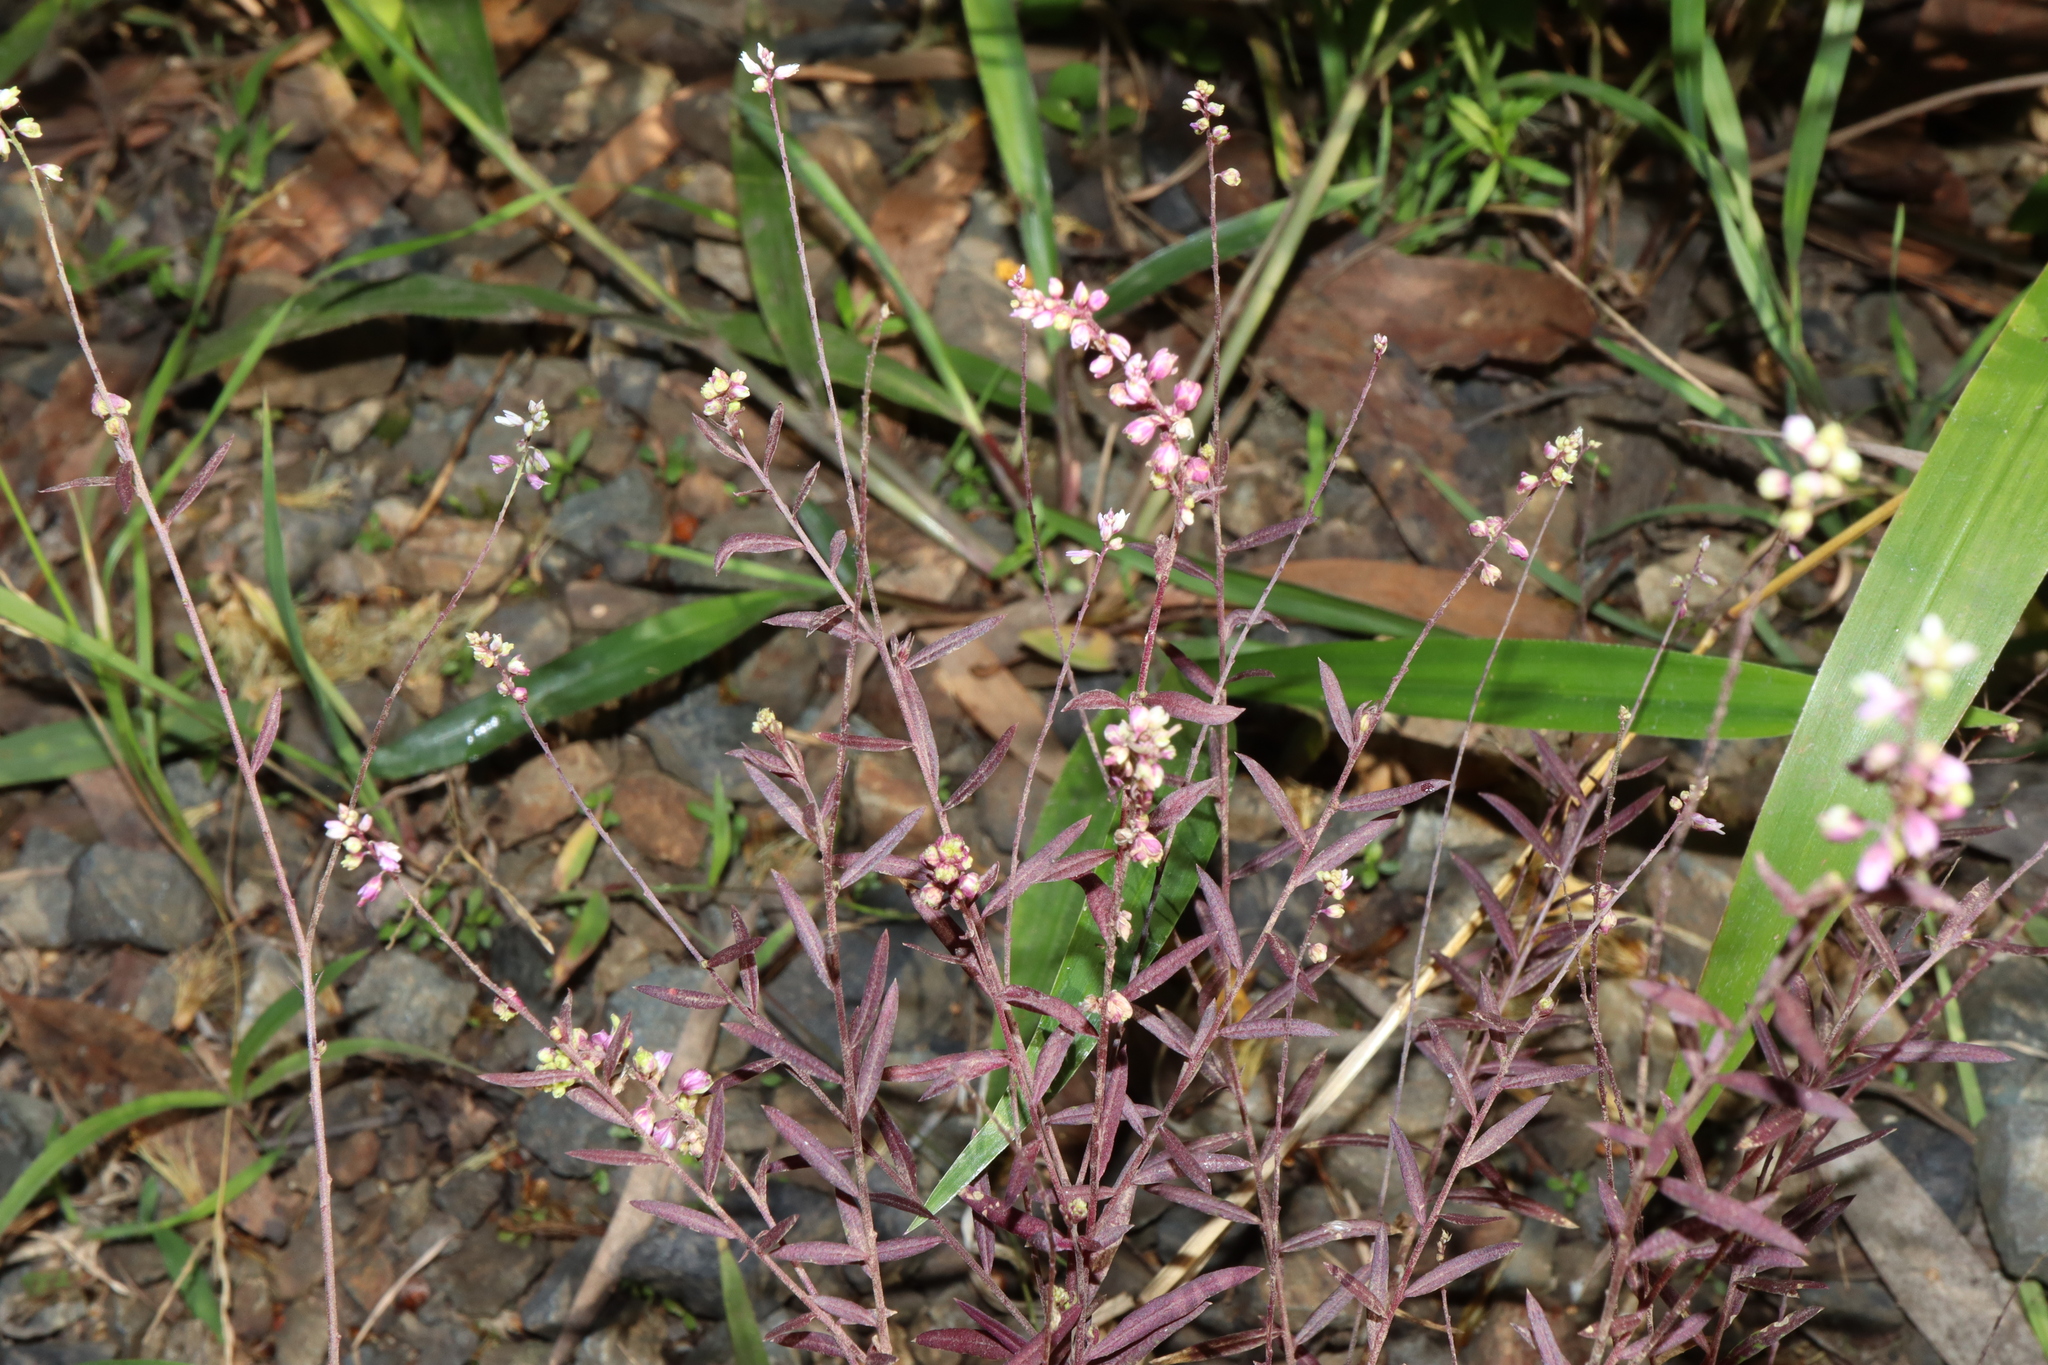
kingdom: Plantae
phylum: Tracheophyta
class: Magnoliopsida
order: Fabales
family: Polygalaceae
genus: Polygala
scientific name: Polygala paniculata
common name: Orosne
